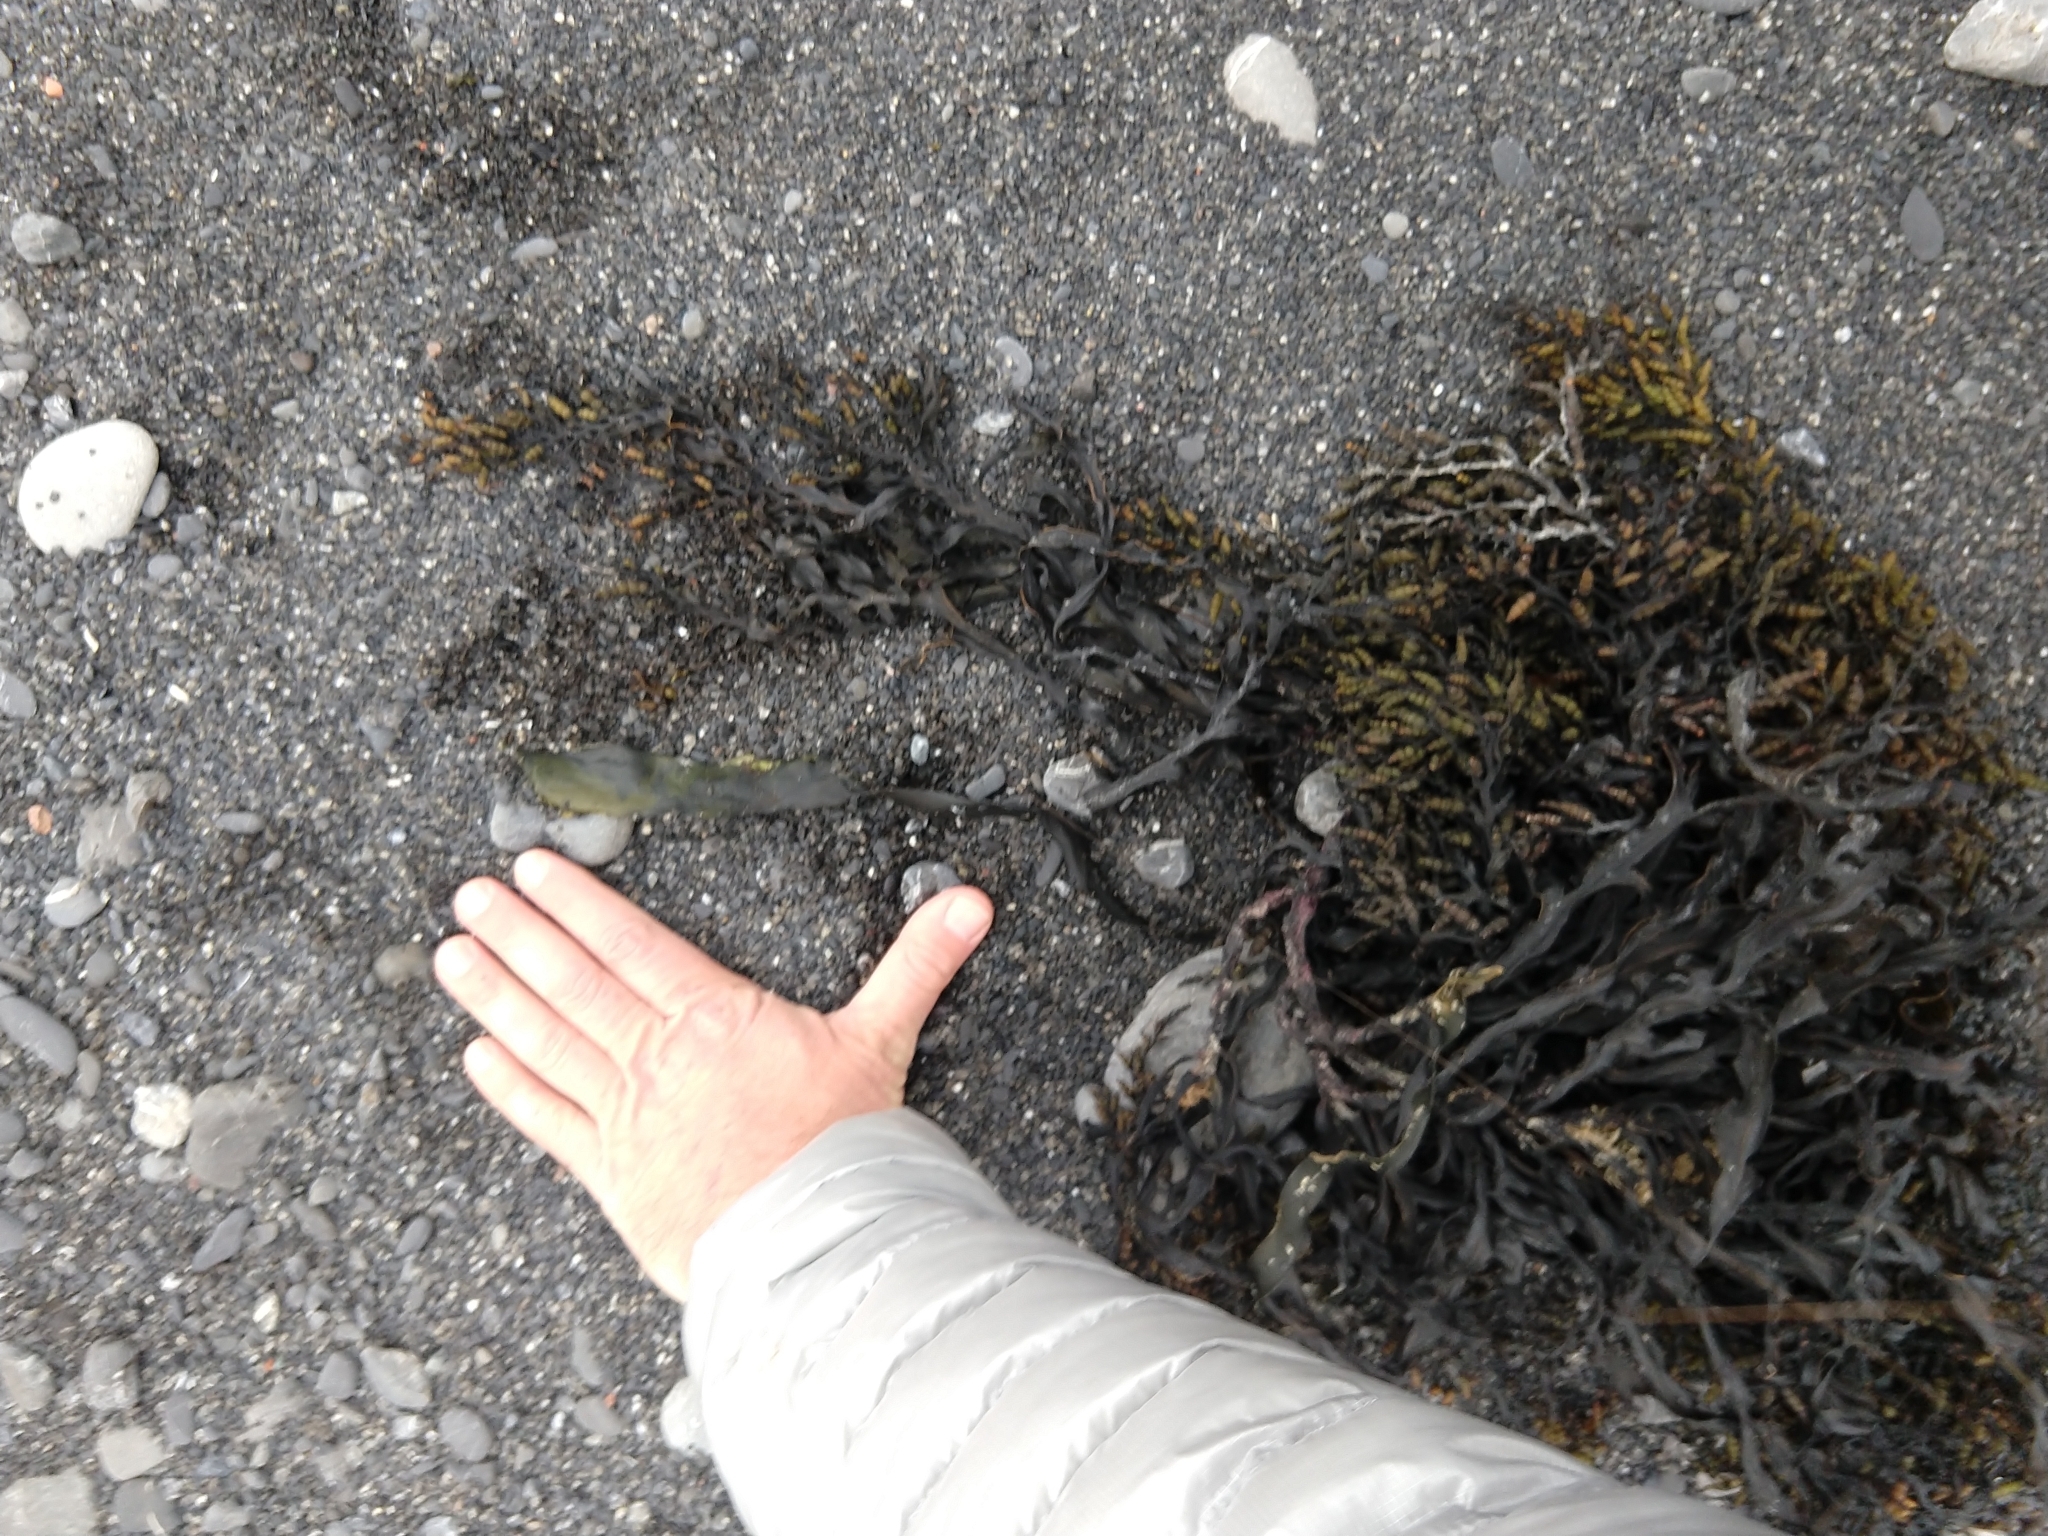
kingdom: Chromista
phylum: Ochrophyta
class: Phaeophyceae
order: Fucales
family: Sargassaceae
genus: Stephanocystis
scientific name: Stephanocystis
